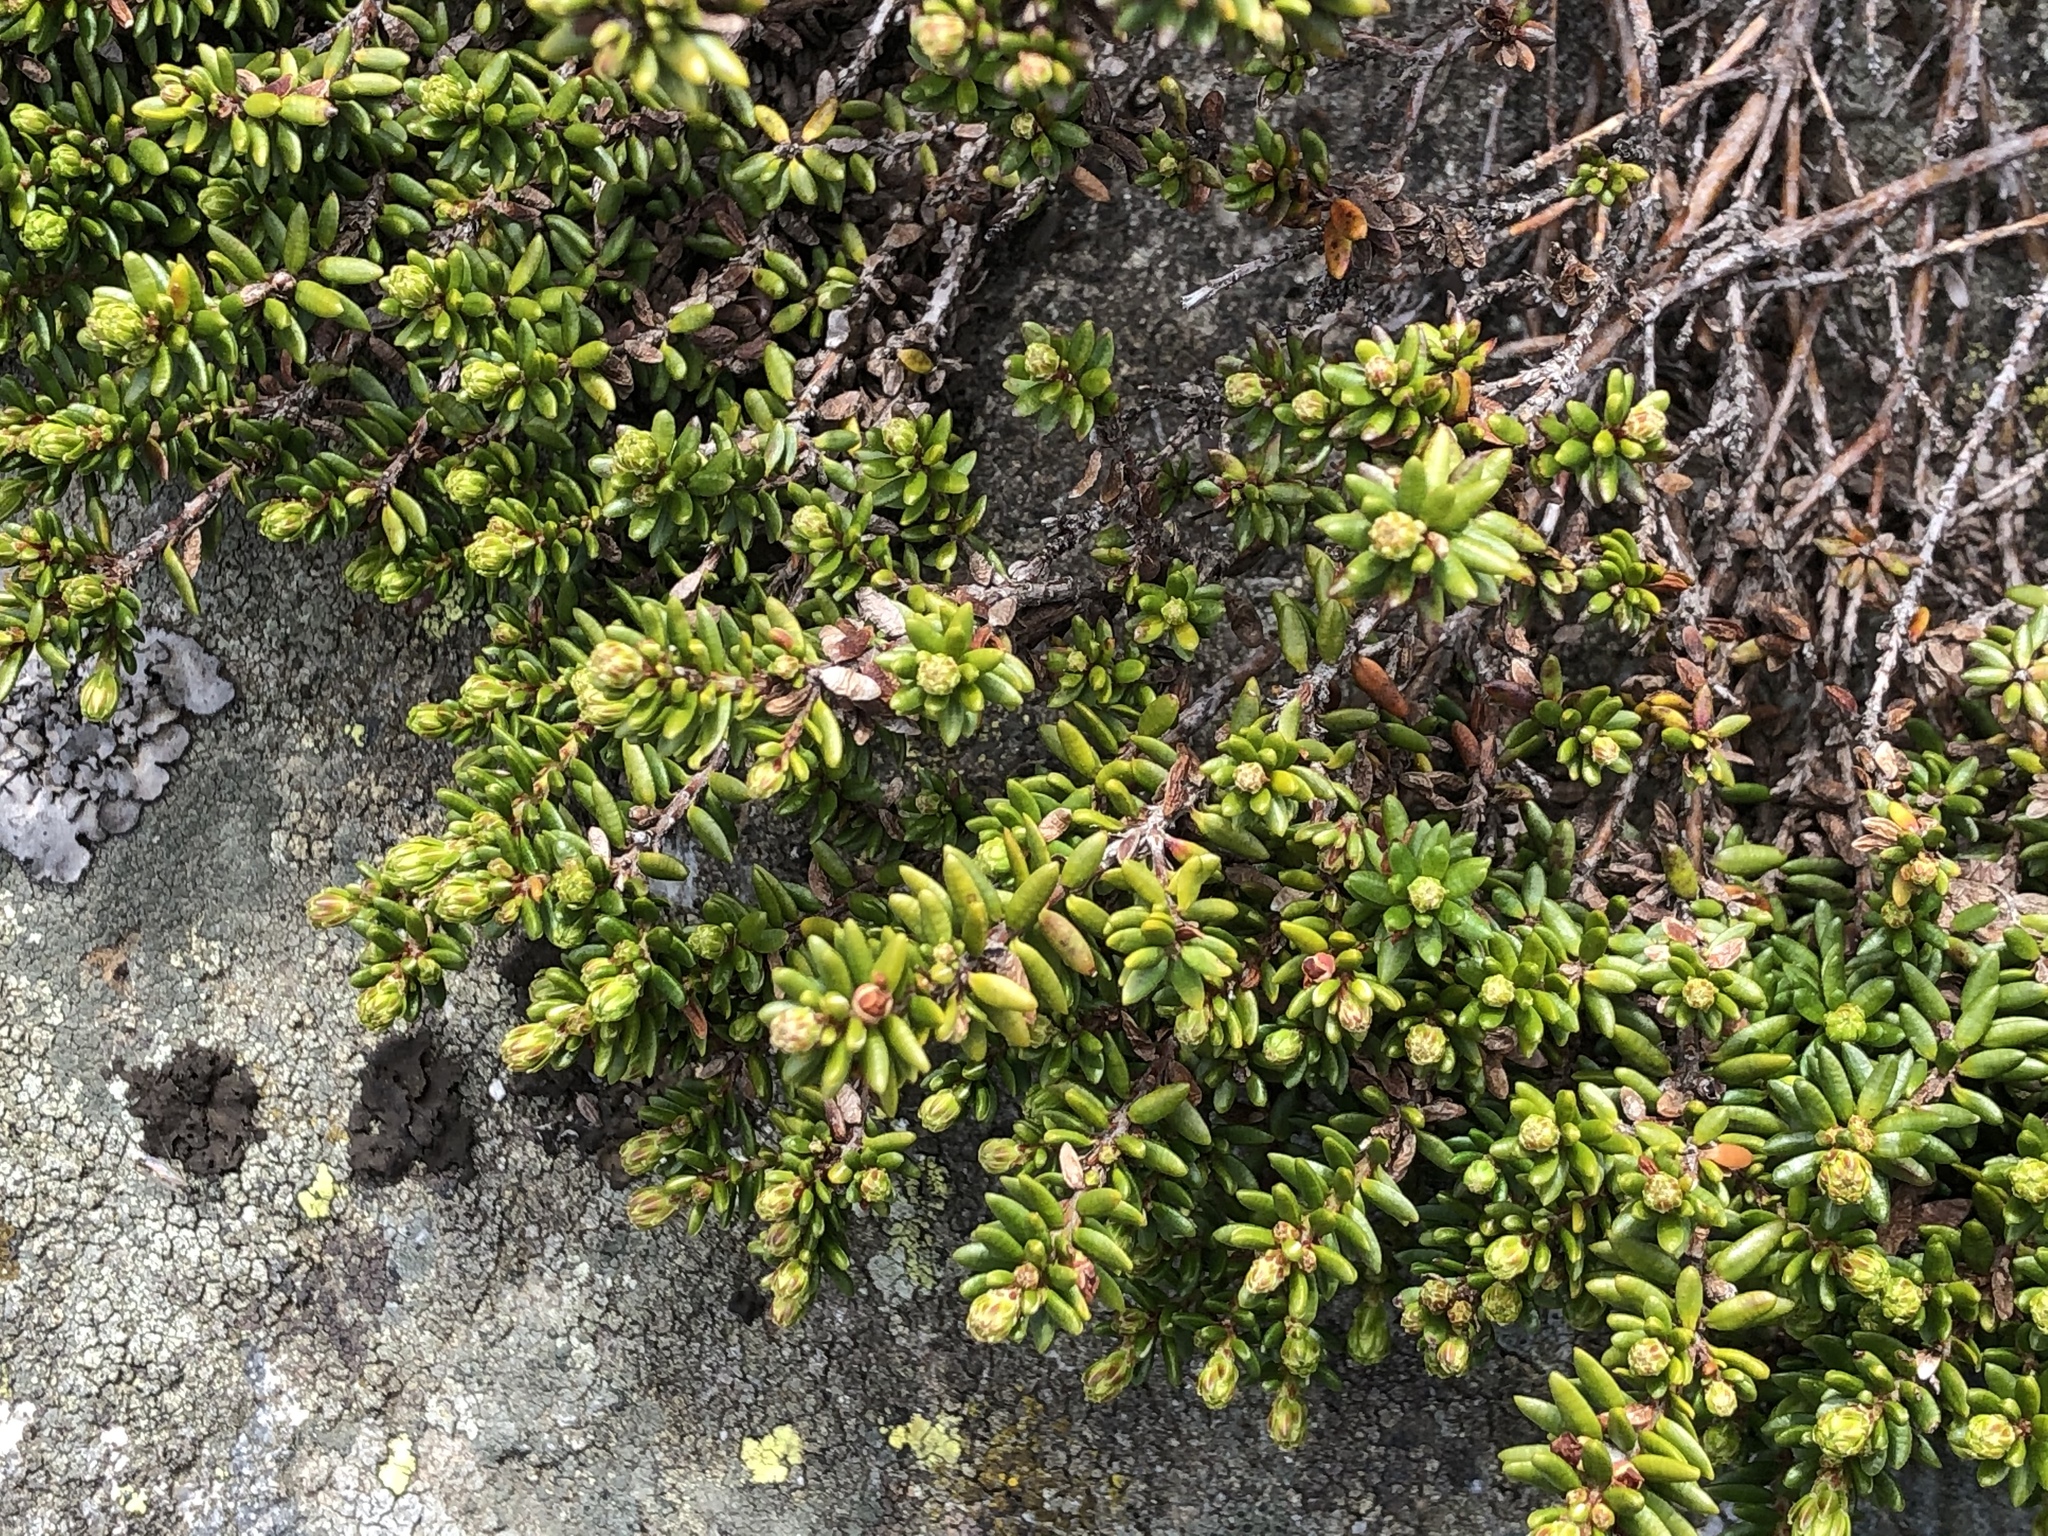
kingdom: Plantae
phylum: Tracheophyta
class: Magnoliopsida
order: Ericales
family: Ericaceae
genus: Empetrum
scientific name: Empetrum nigrum
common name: Black crowberry
